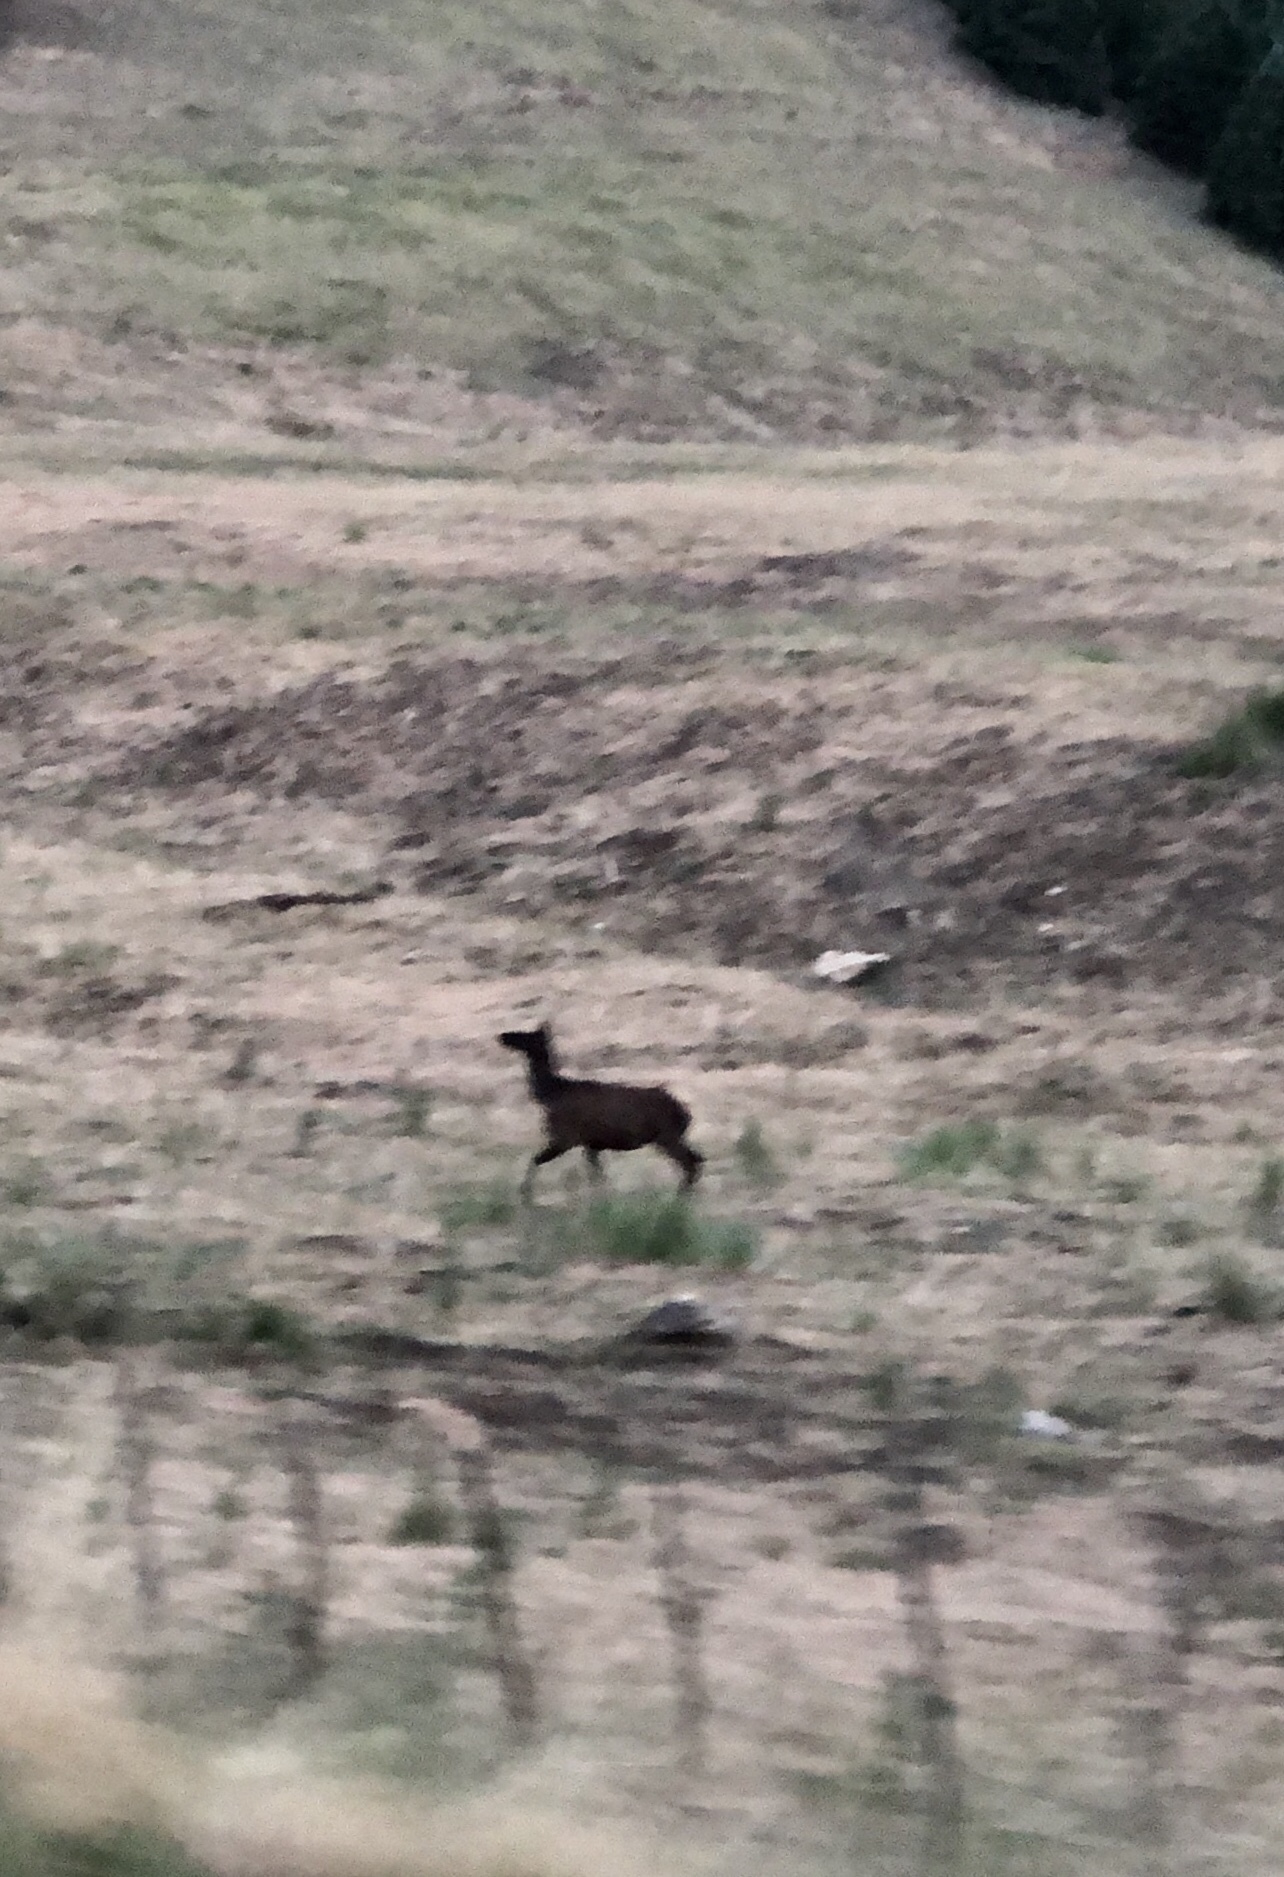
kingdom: Animalia
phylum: Chordata
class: Mammalia
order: Artiodactyla
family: Cervidae
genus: Cervus
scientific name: Cervus elaphus
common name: Red deer
